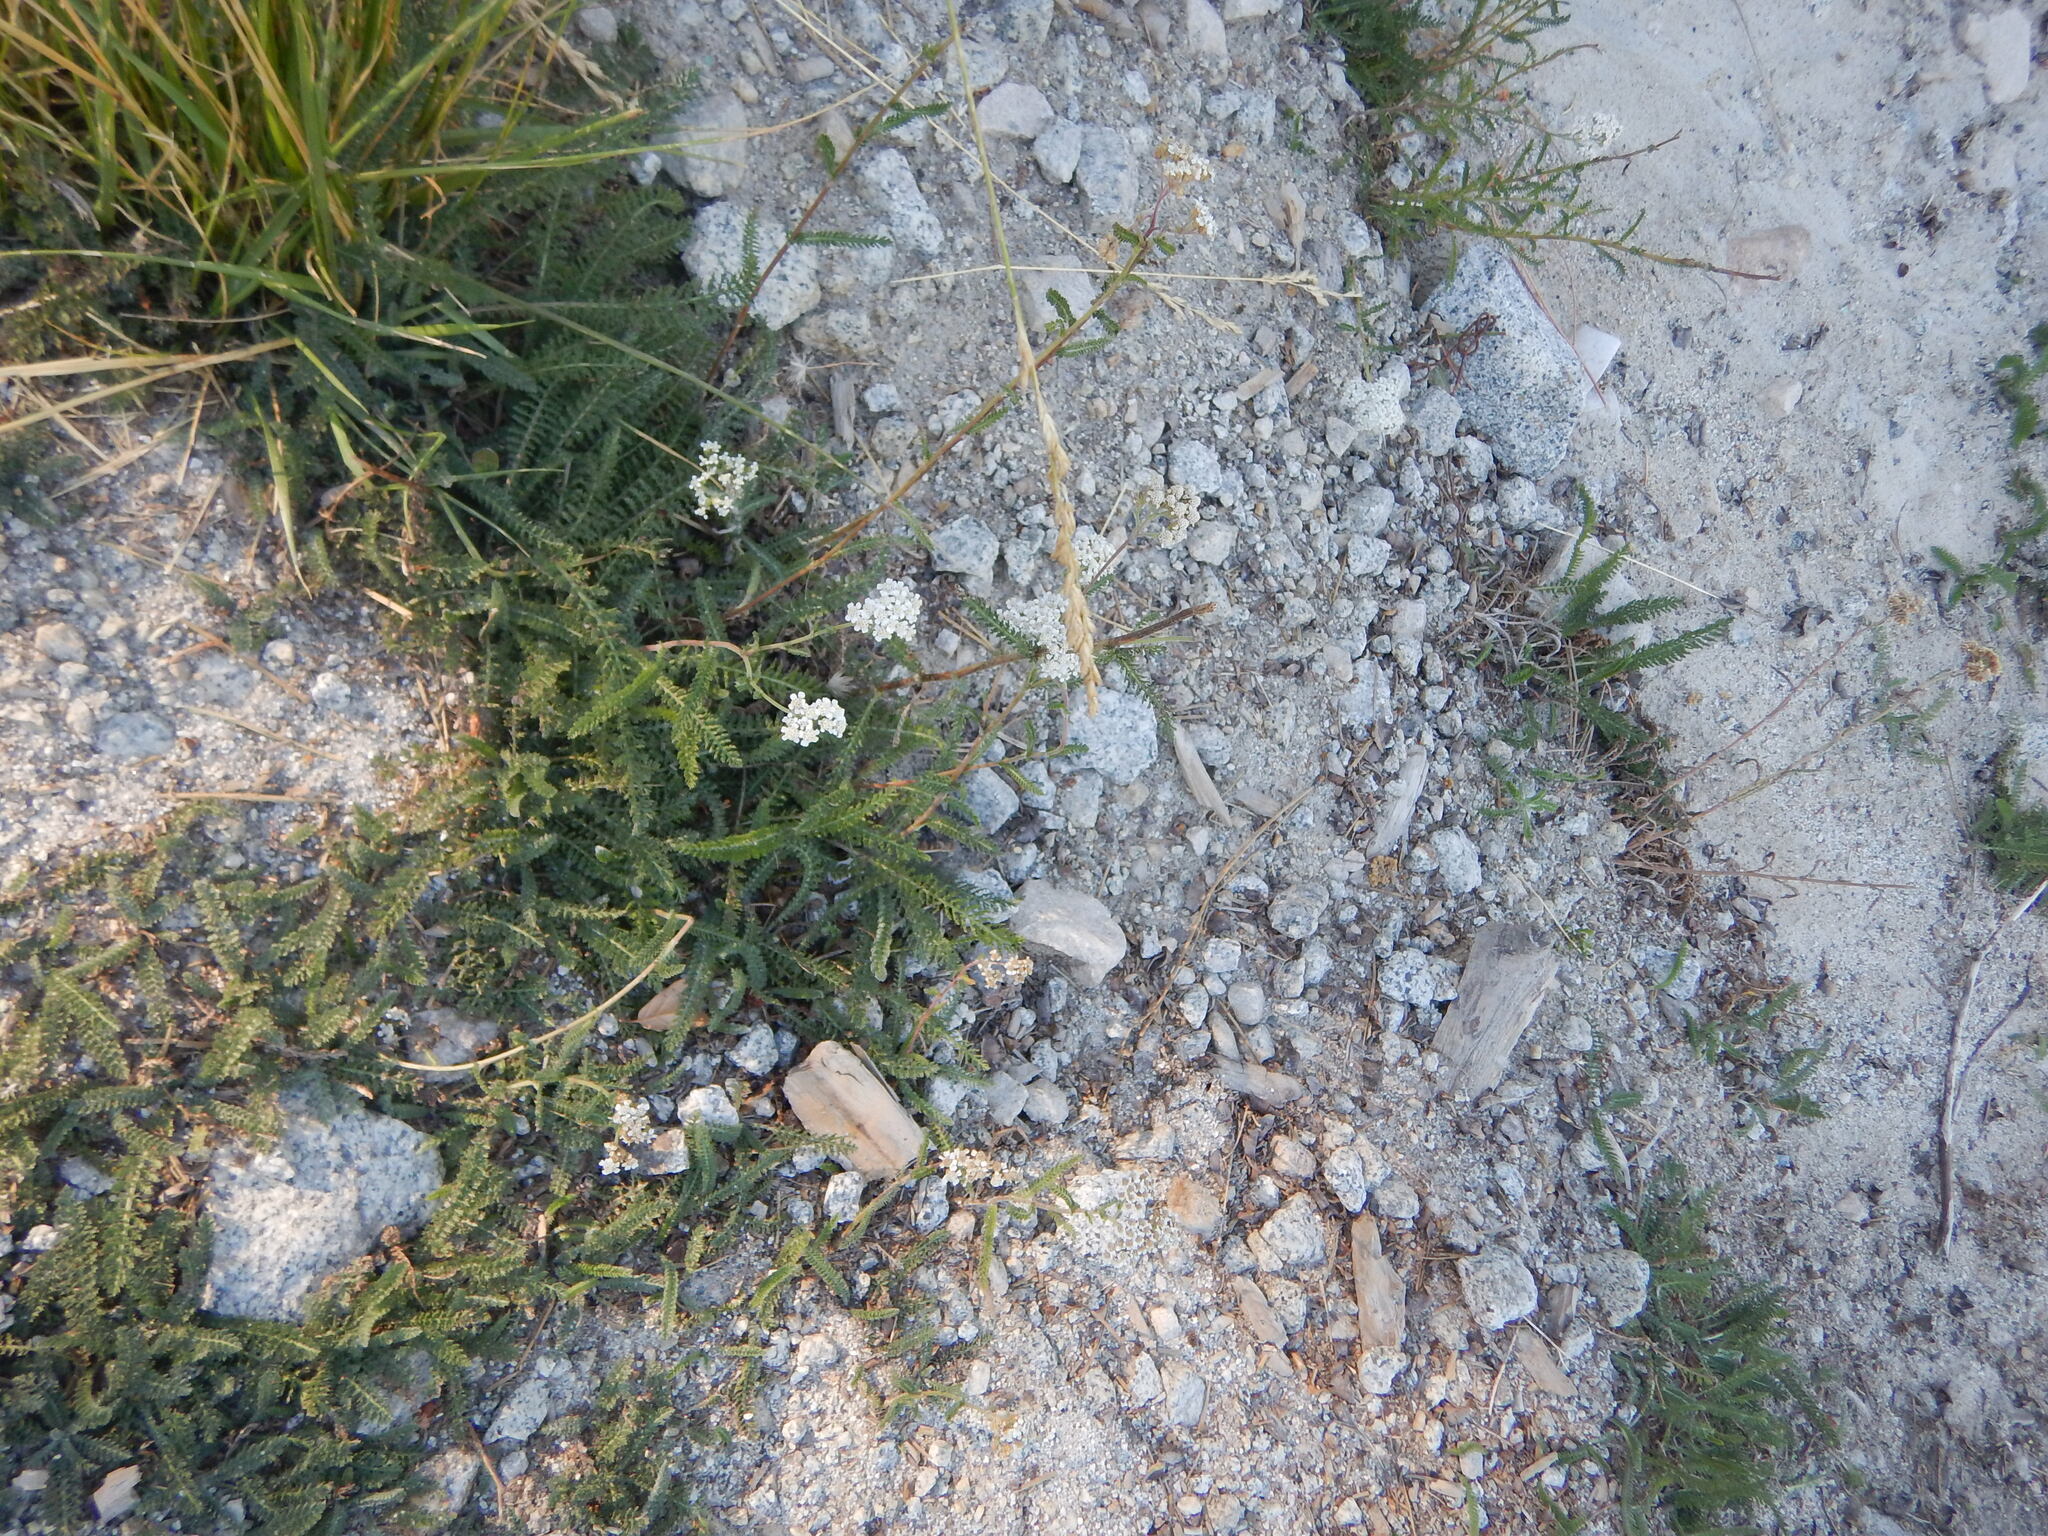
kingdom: Plantae
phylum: Tracheophyta
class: Magnoliopsida
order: Asterales
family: Asteraceae
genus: Achillea
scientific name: Achillea millefolium
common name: Yarrow
